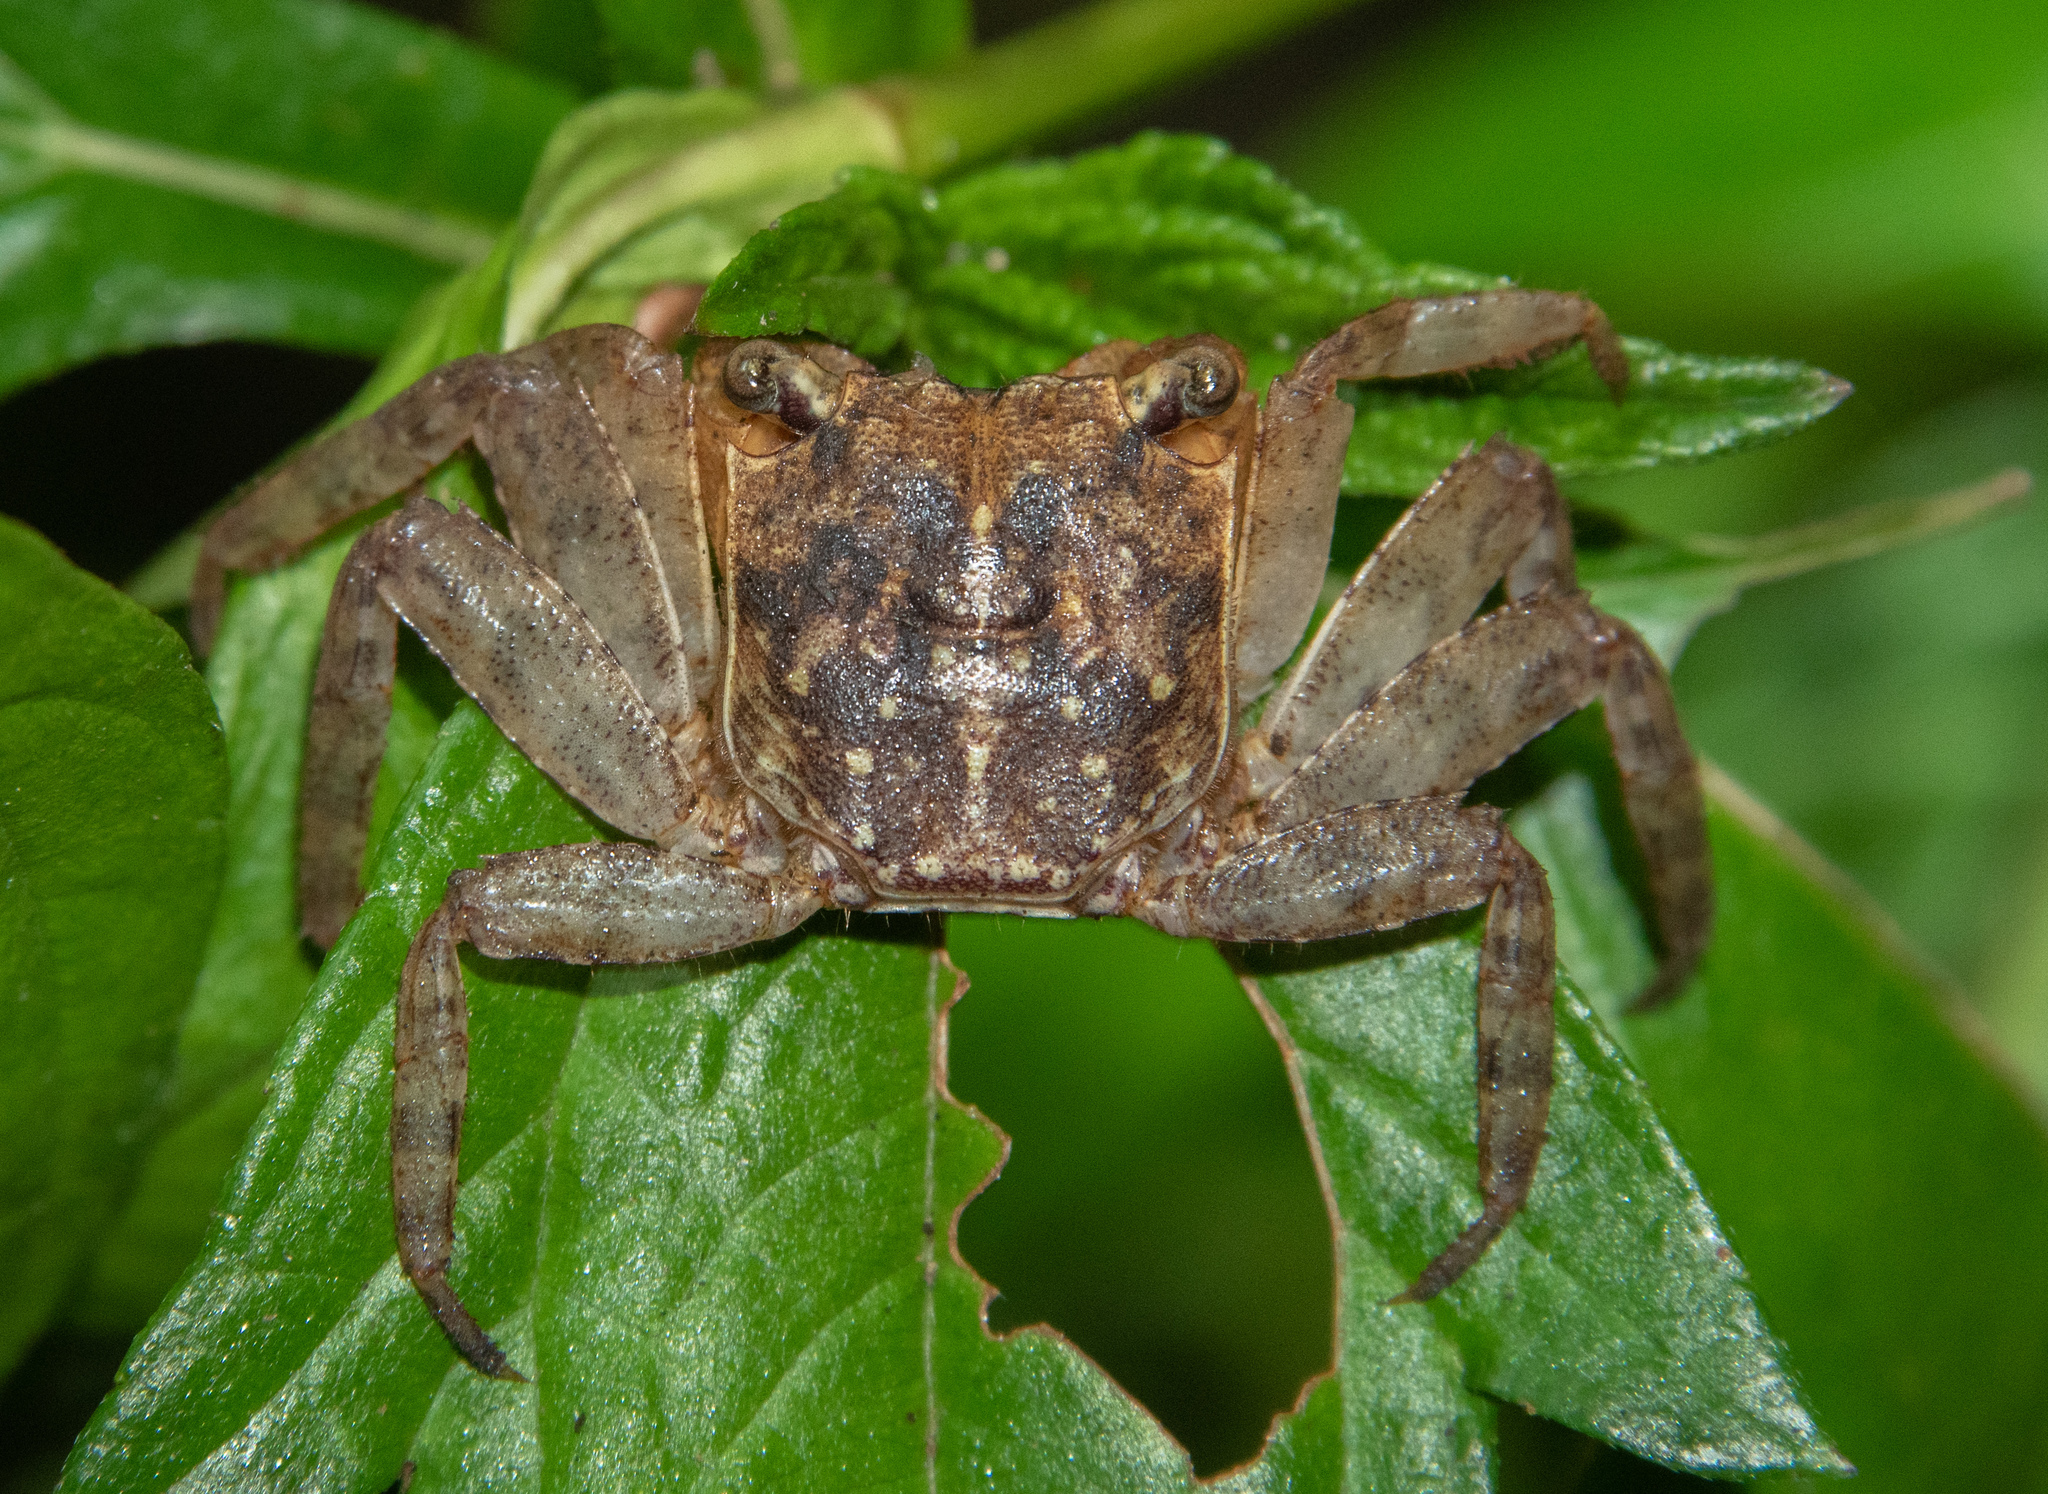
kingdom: Animalia
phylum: Arthropoda
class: Malacostraca
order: Decapoda
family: Sesarmidae
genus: Armases
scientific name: Armases angustum
